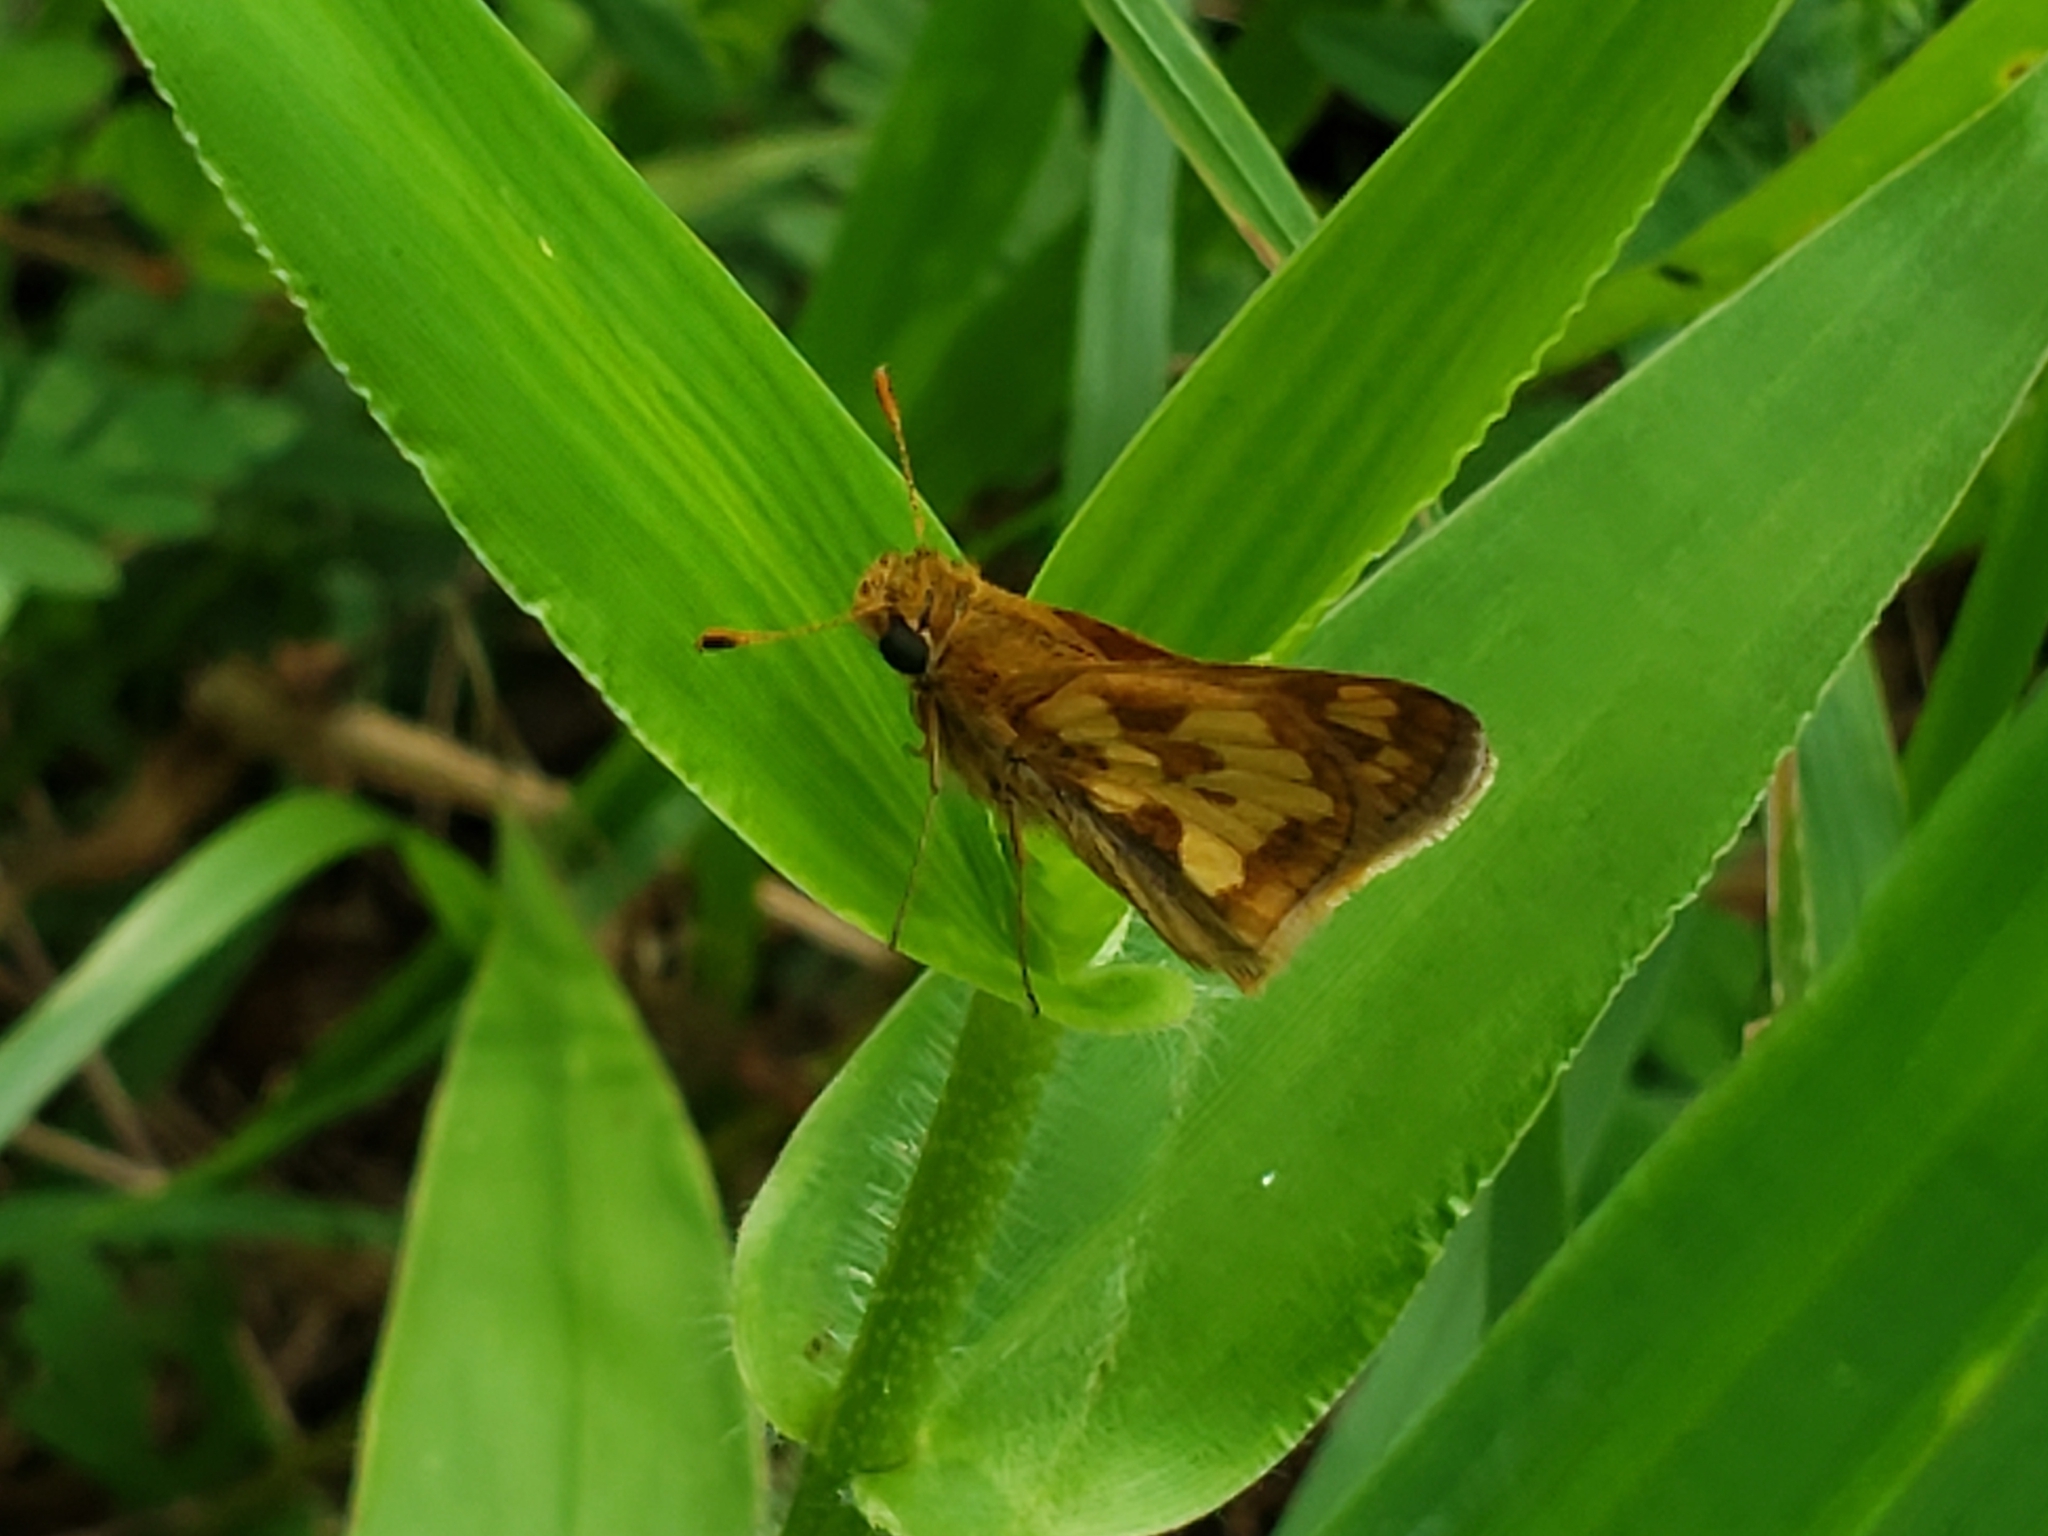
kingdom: Animalia
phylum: Arthropoda
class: Insecta
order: Lepidoptera
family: Hesperiidae
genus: Polites
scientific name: Polites coras
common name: Peck's skipper
